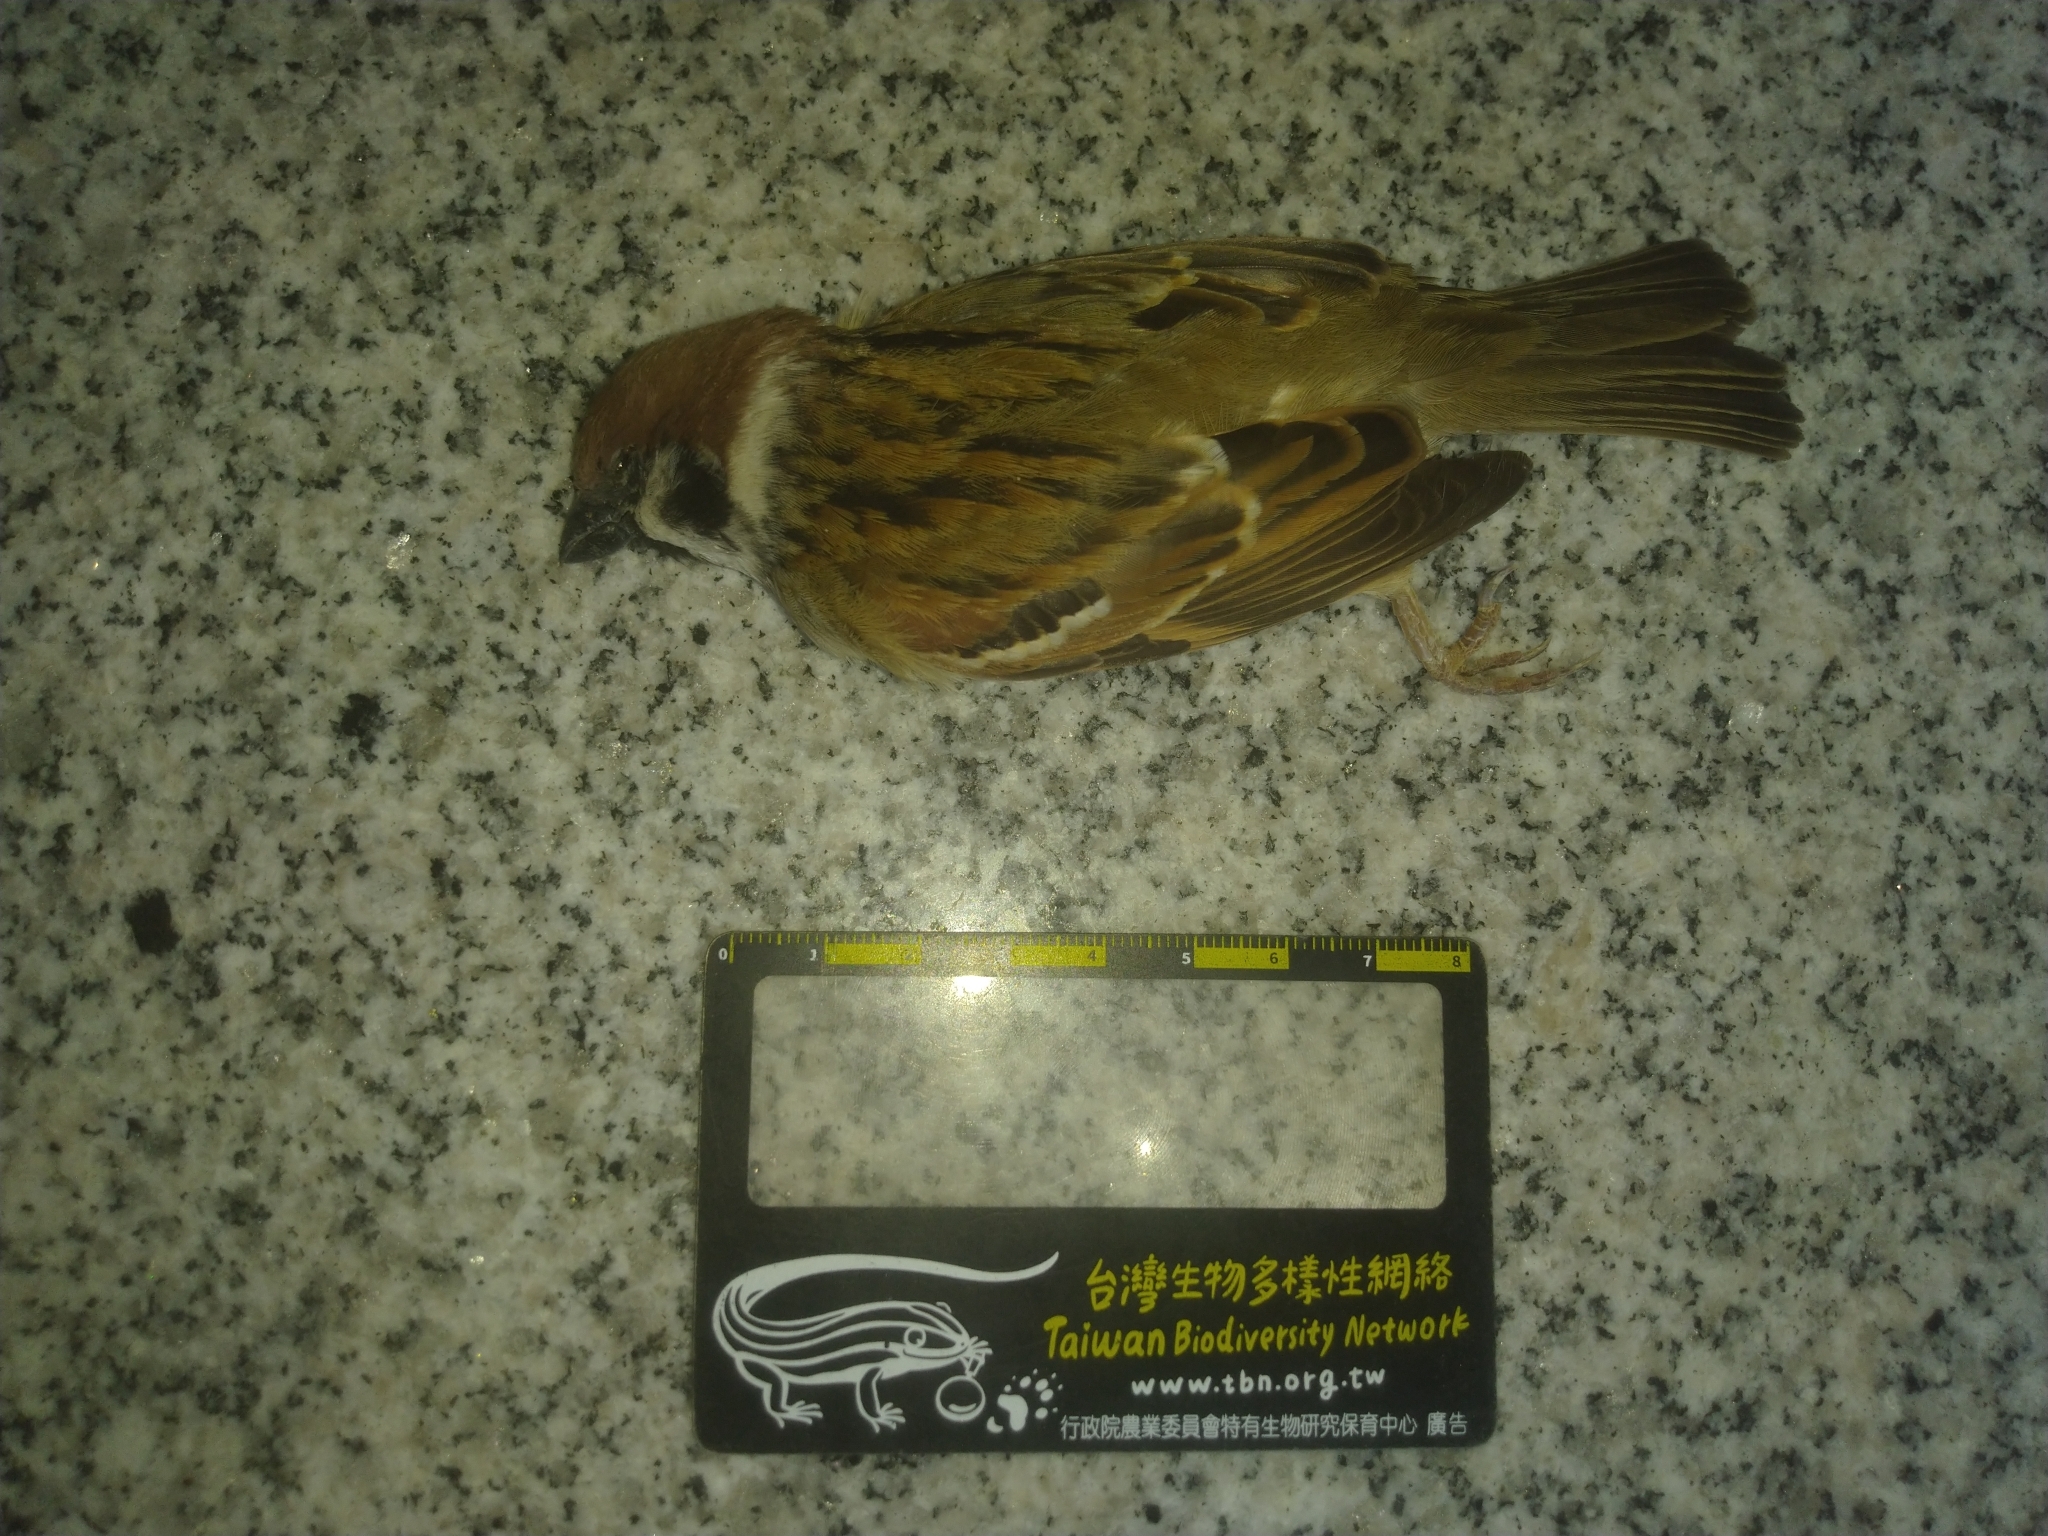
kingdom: Animalia
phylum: Chordata
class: Aves
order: Passeriformes
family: Passeridae
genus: Passer
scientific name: Passer montanus
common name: Eurasian tree sparrow
